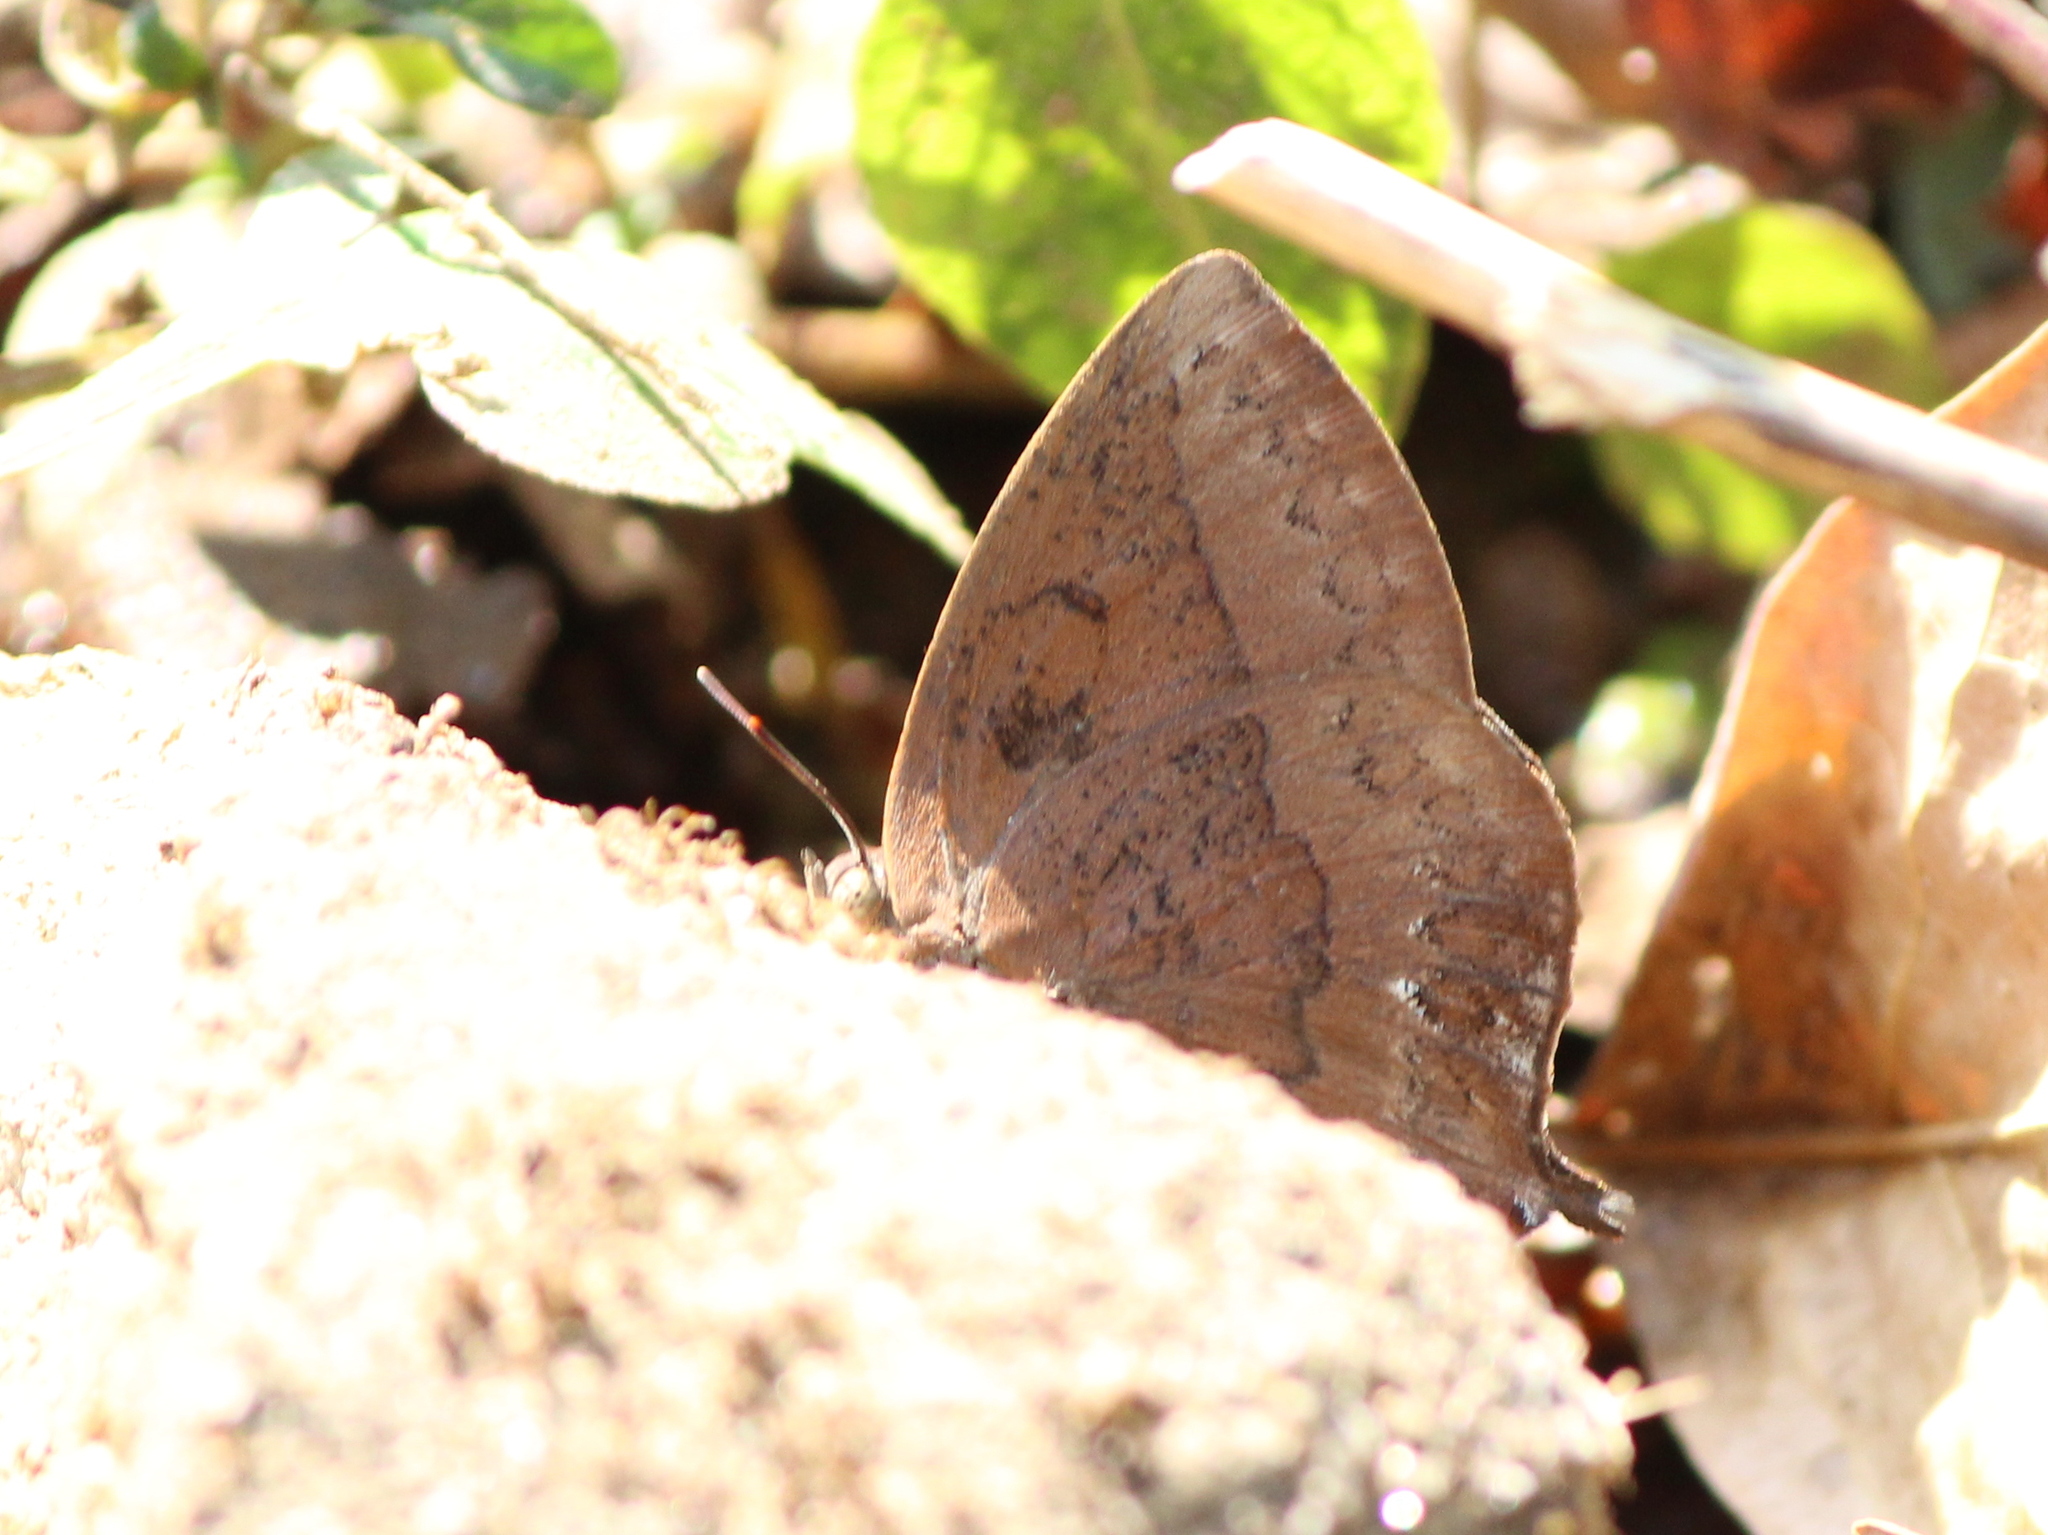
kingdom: Animalia
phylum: Arthropoda
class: Insecta
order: Lepidoptera
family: Lycaenidae
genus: Amblypodia
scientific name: Amblypodia anita
